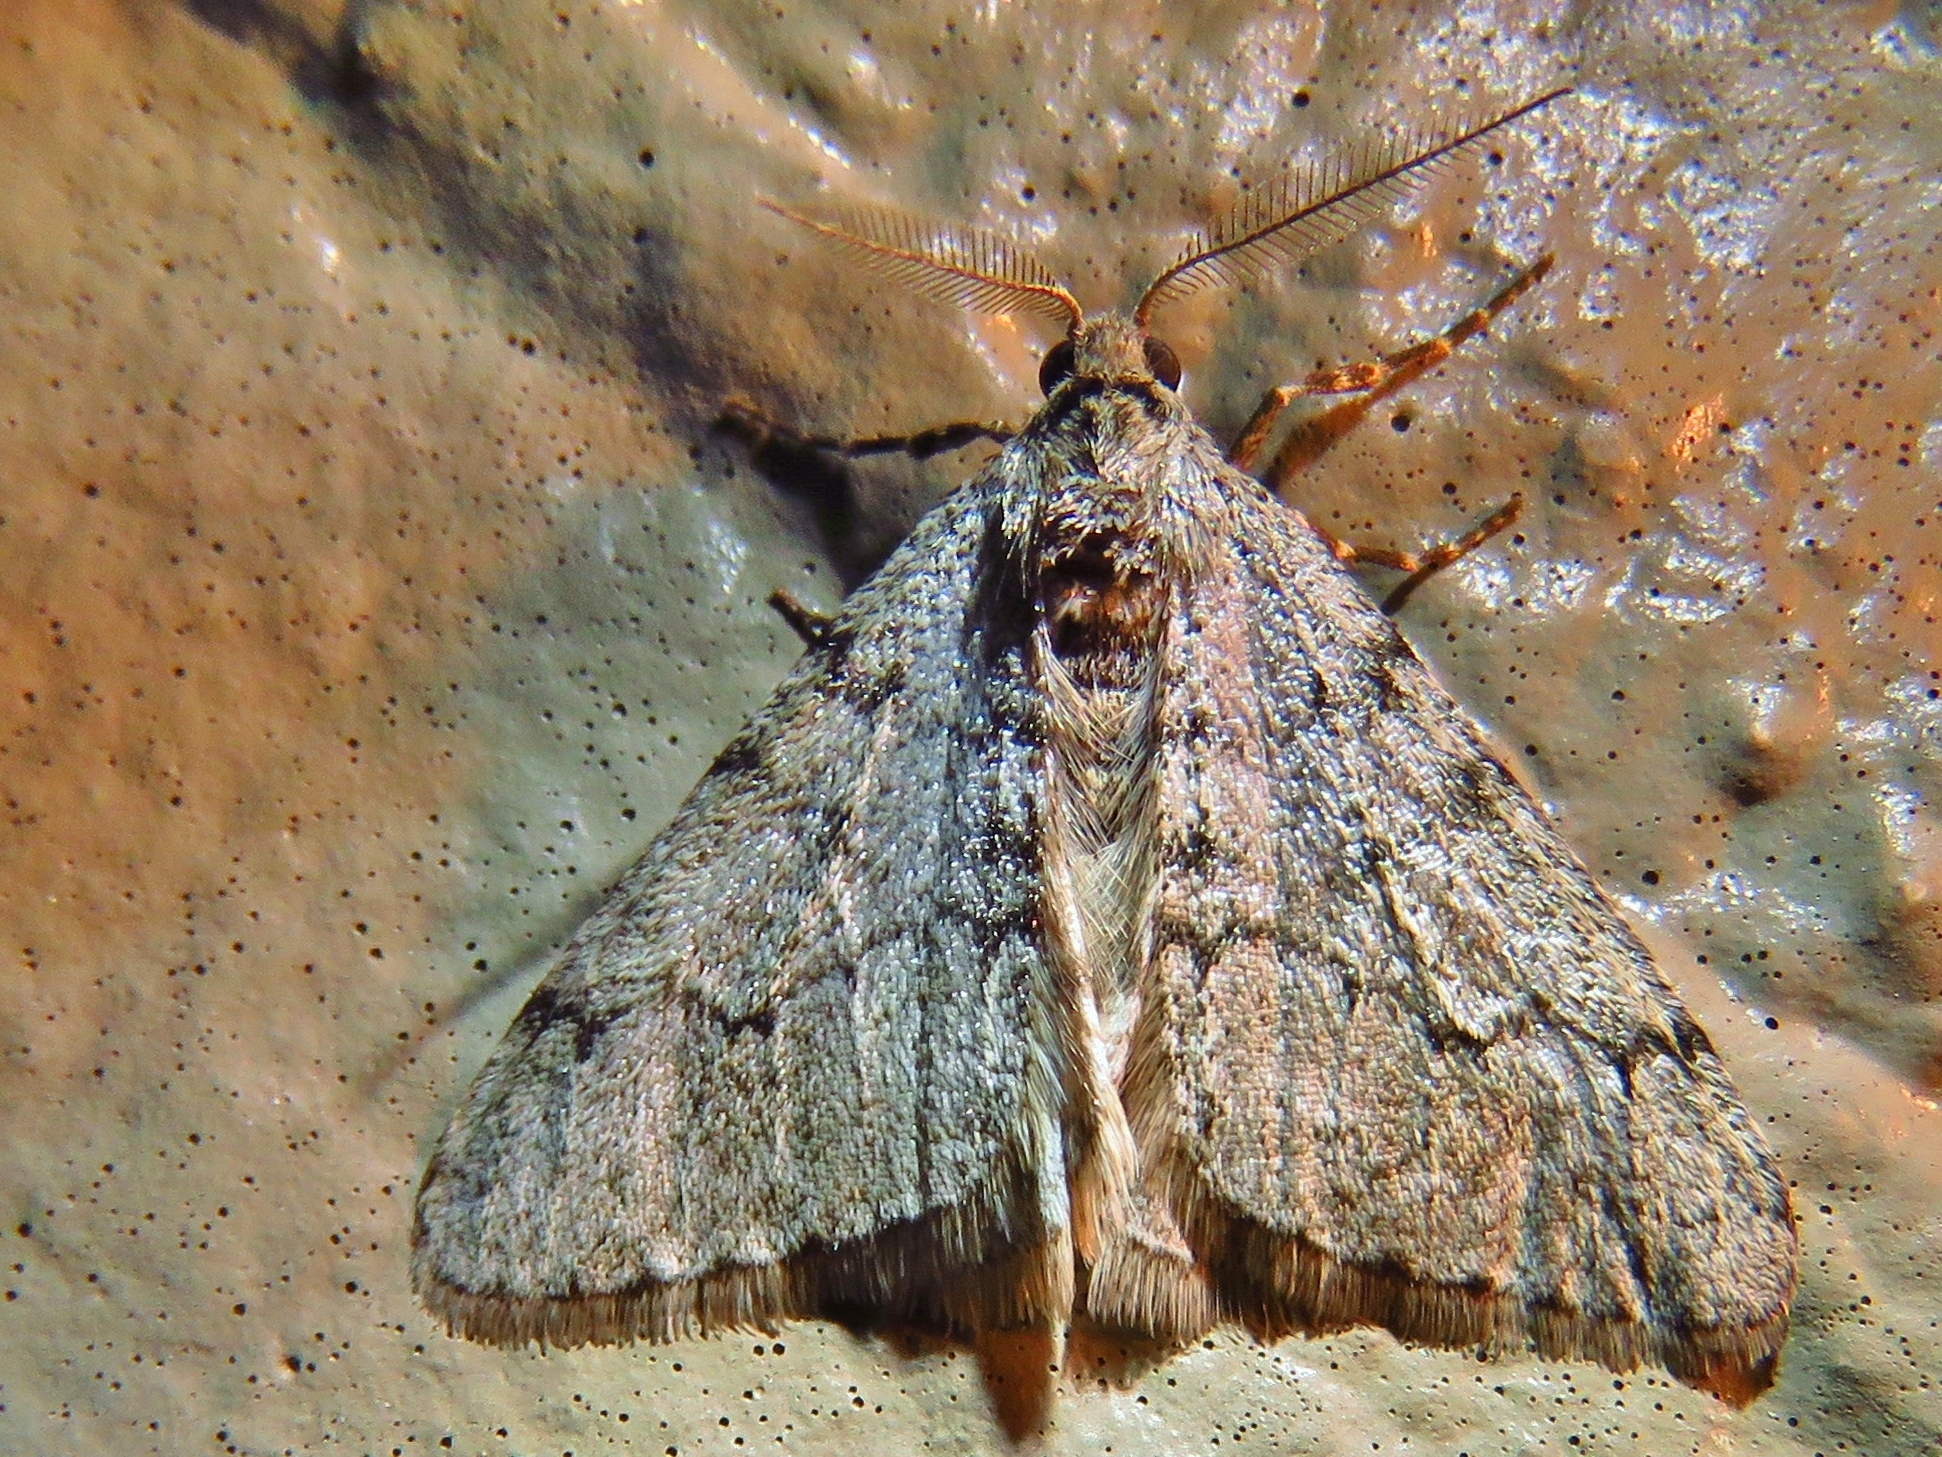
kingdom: Animalia
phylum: Arthropoda
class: Insecta
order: Lepidoptera
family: Geometridae
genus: Phigalia
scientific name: Phigalia strigataria
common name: Small phigalia
